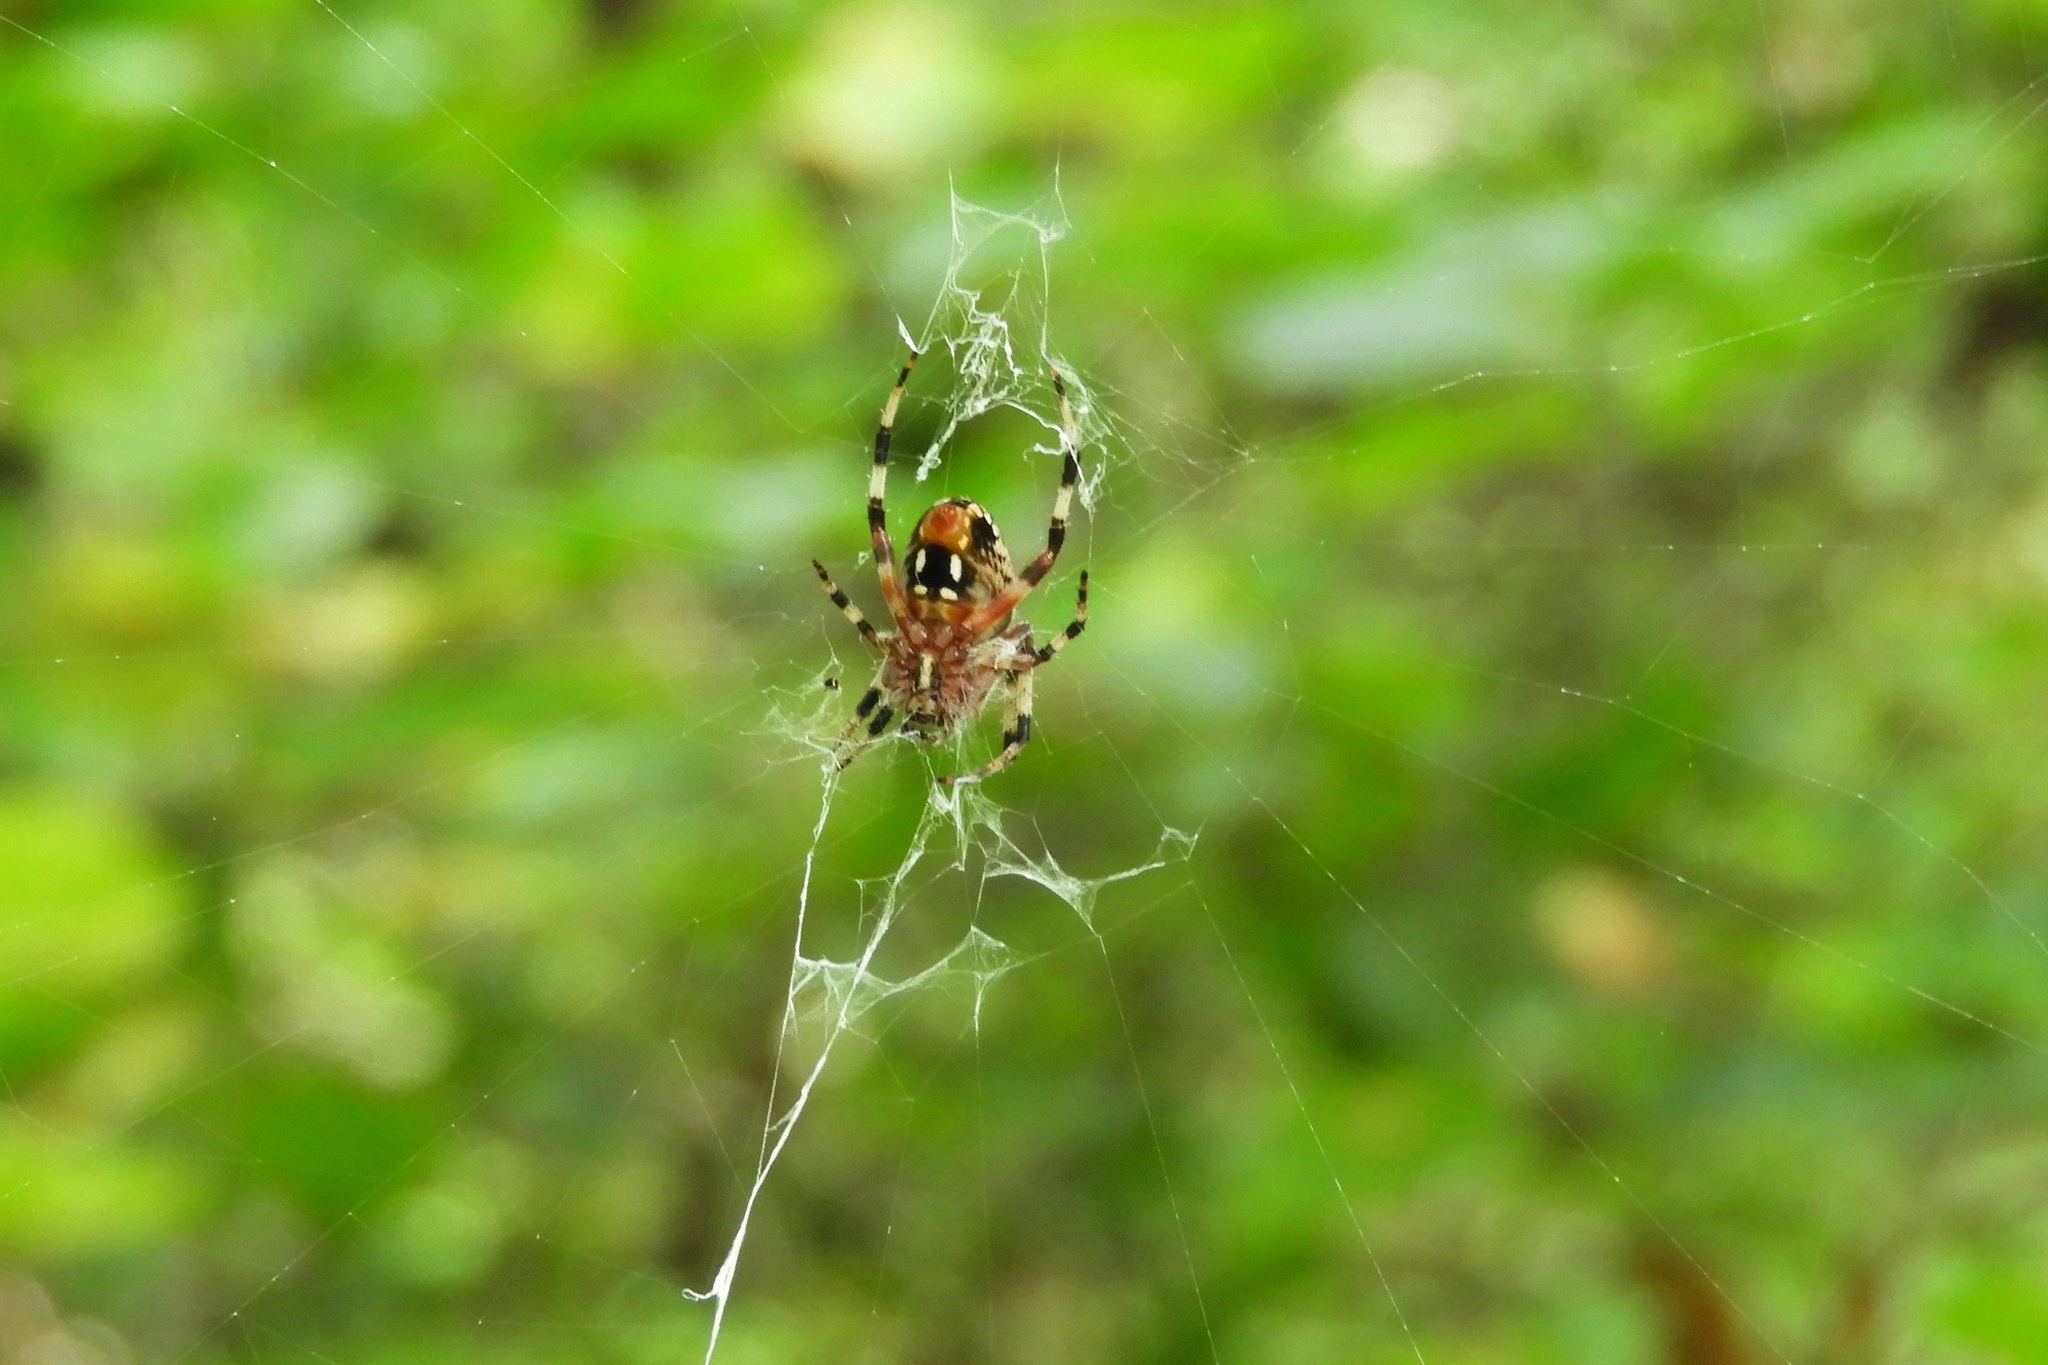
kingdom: Animalia
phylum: Arthropoda
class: Arachnida
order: Araneae
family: Araneidae
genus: Neoscona
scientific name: Neoscona domiciliorum
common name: Red-femured spotted orbweaver
